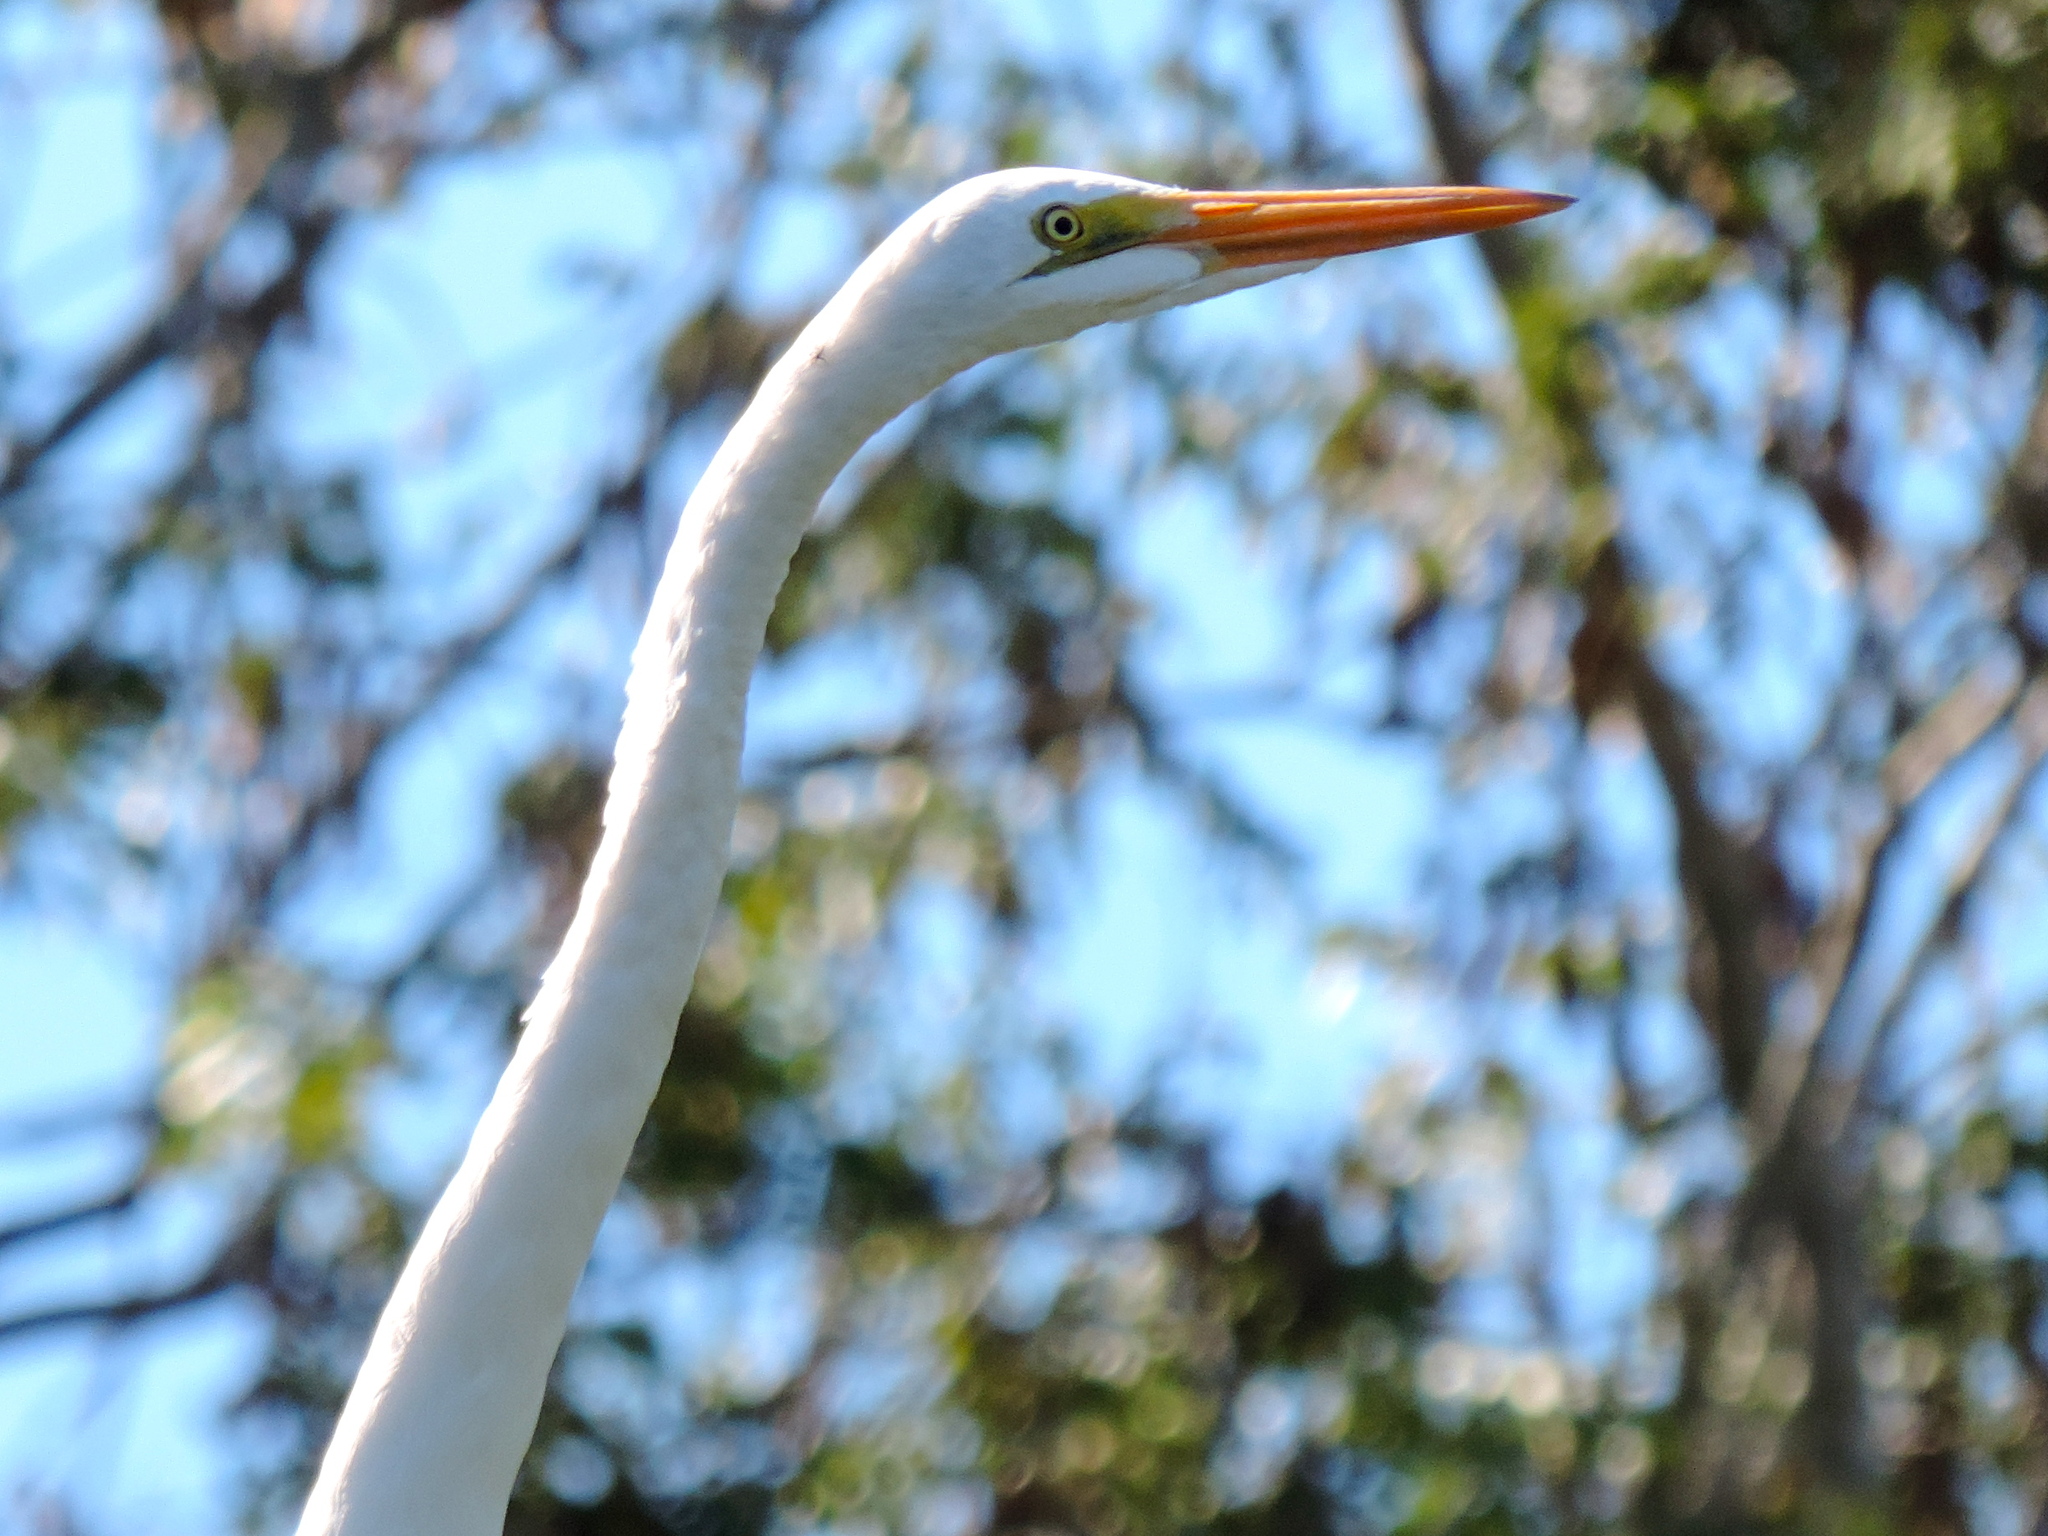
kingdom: Animalia
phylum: Chordata
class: Aves
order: Pelecaniformes
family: Ardeidae
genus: Ardea
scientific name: Ardea alba
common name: Great egret
